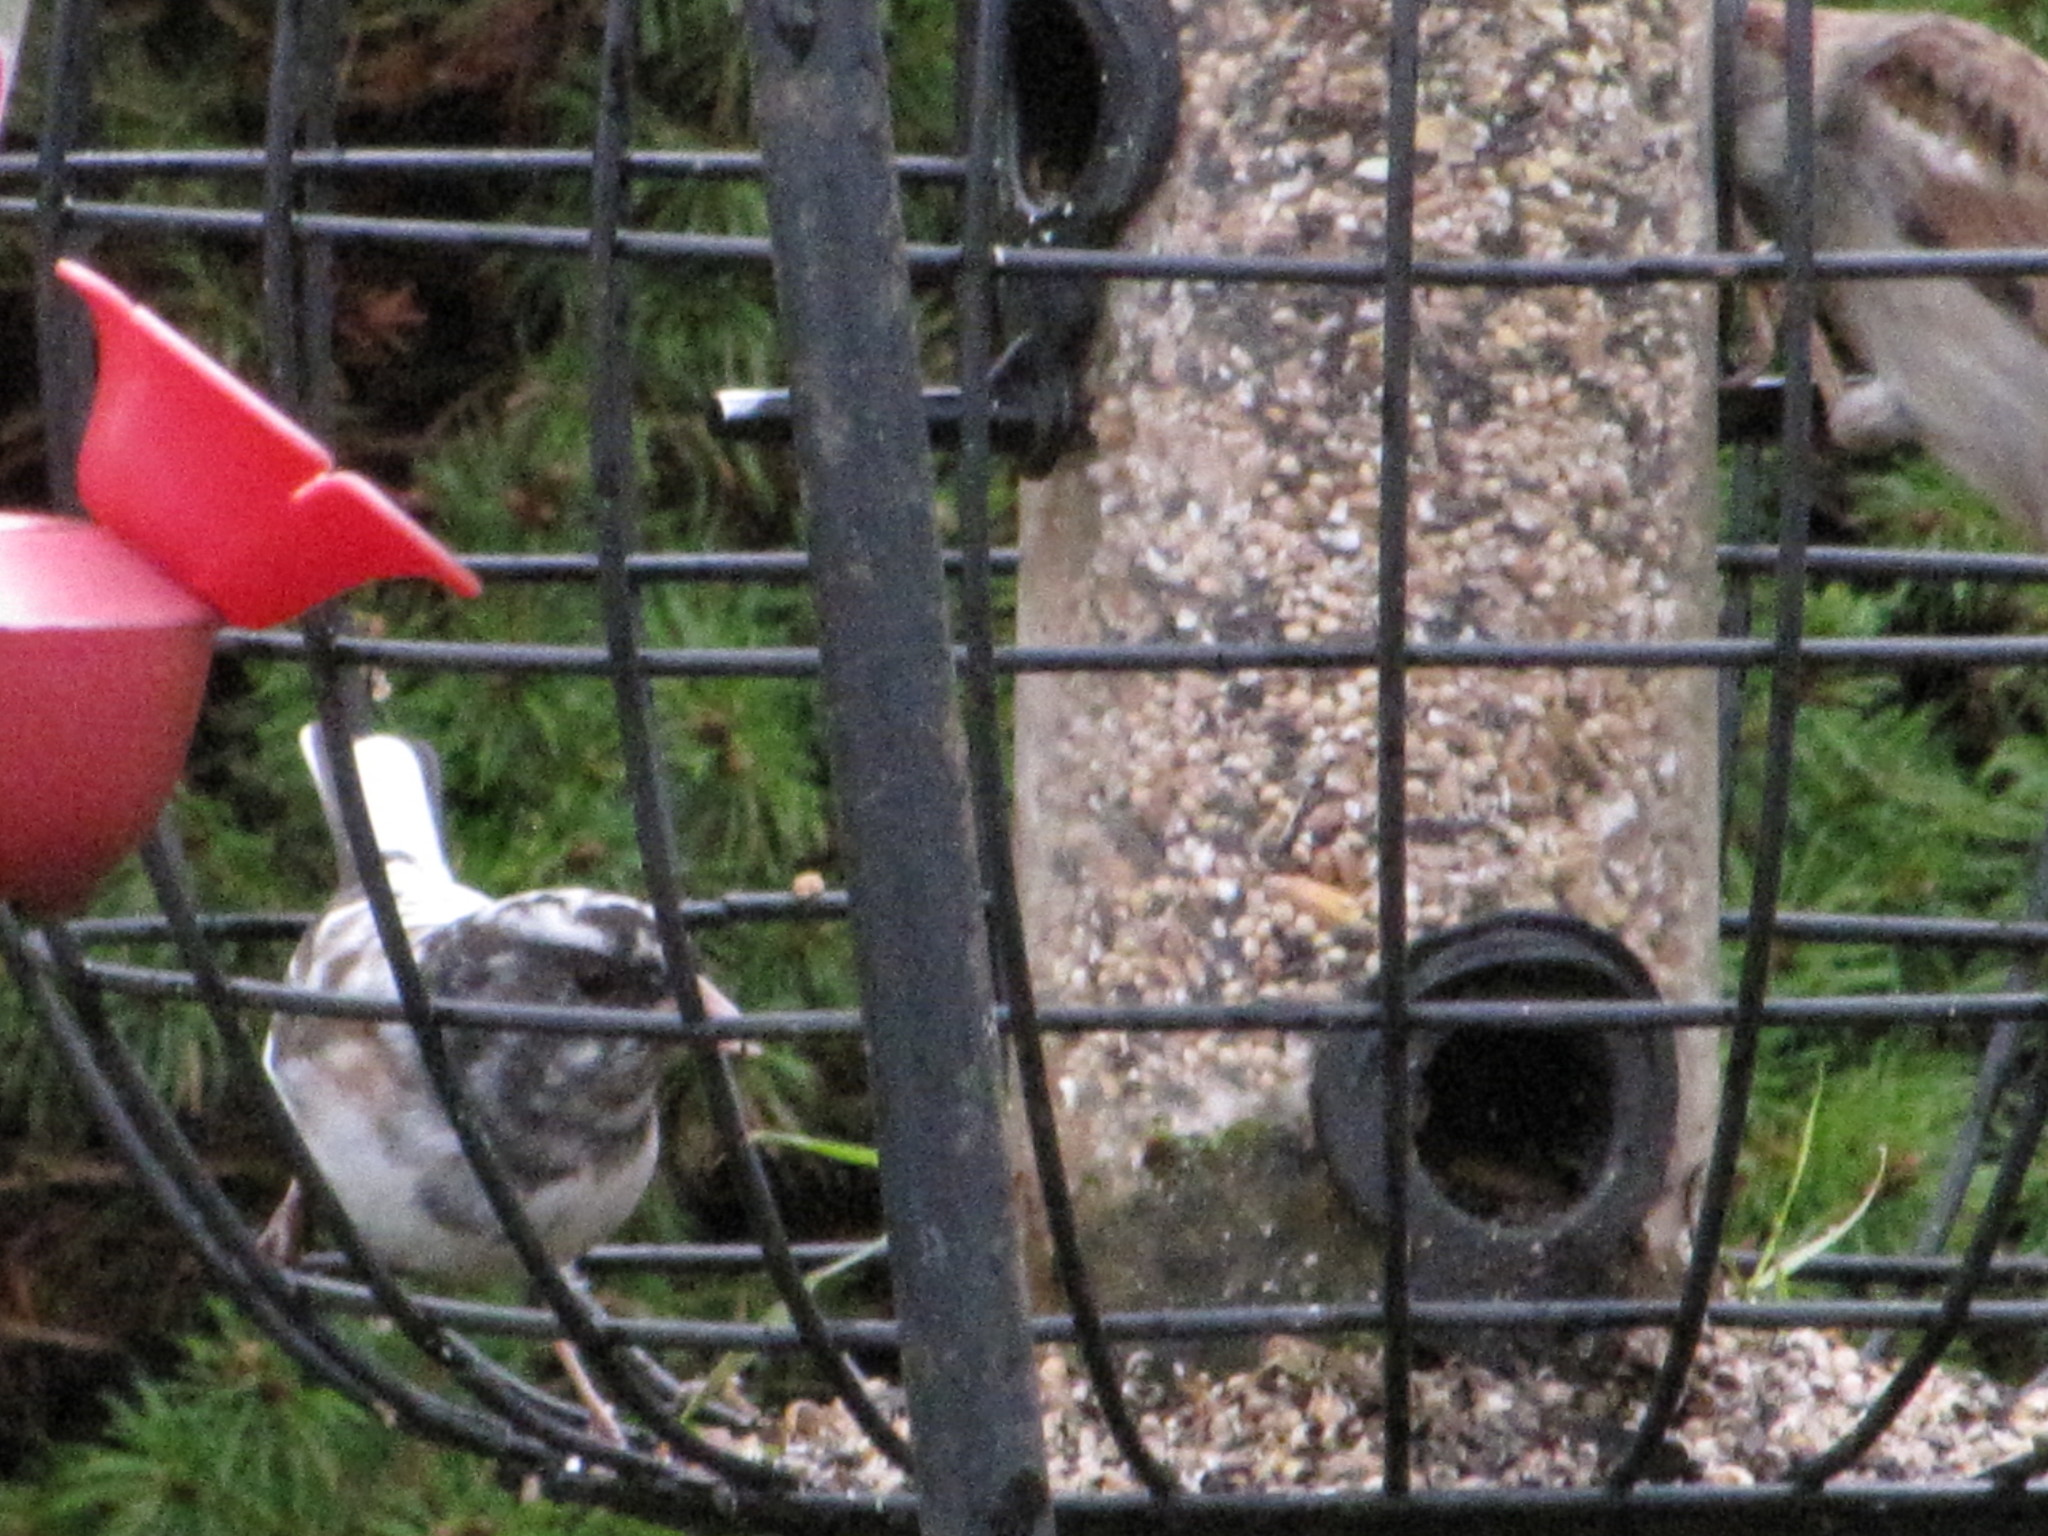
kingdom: Animalia
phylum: Chordata
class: Aves
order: Passeriformes
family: Passerellidae
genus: Junco
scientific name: Junco hyemalis
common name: Dark-eyed junco
